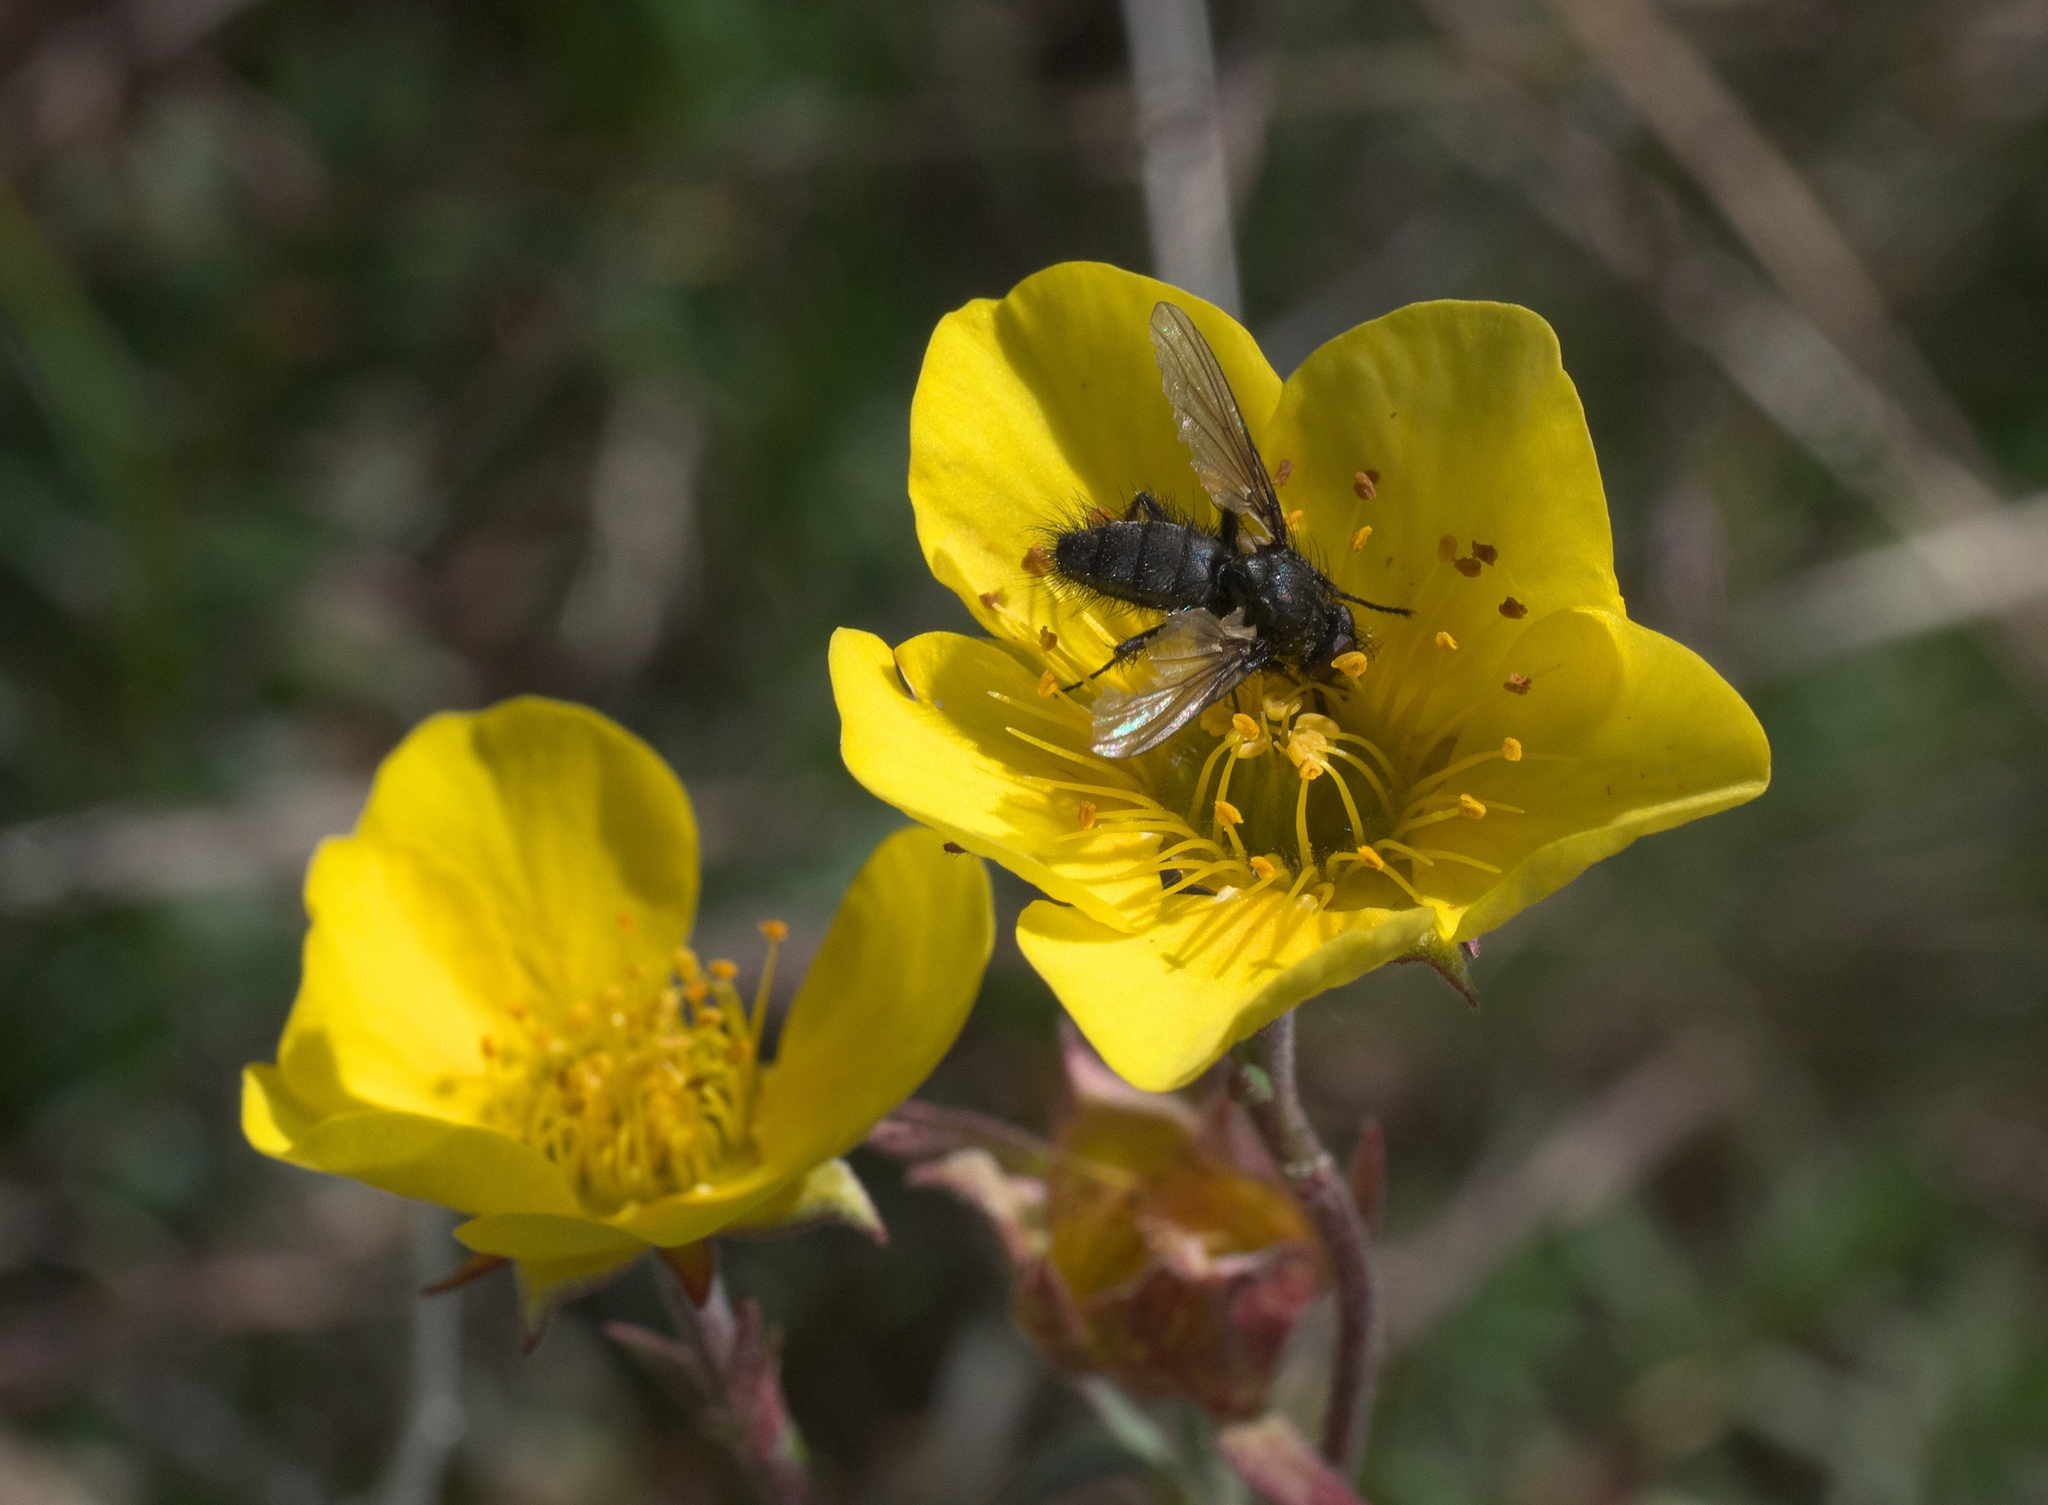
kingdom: Plantae
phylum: Tracheophyta
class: Magnoliopsida
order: Rosales
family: Rosaceae
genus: Geum
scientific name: Geum rossii
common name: Alpine avens
